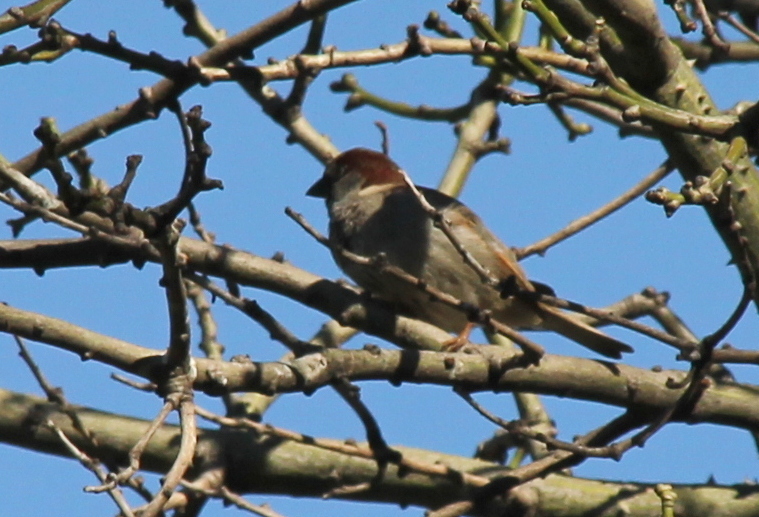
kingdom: Animalia
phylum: Chordata
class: Aves
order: Passeriformes
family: Passeridae
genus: Passer
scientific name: Passer domesticus
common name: House sparrow
